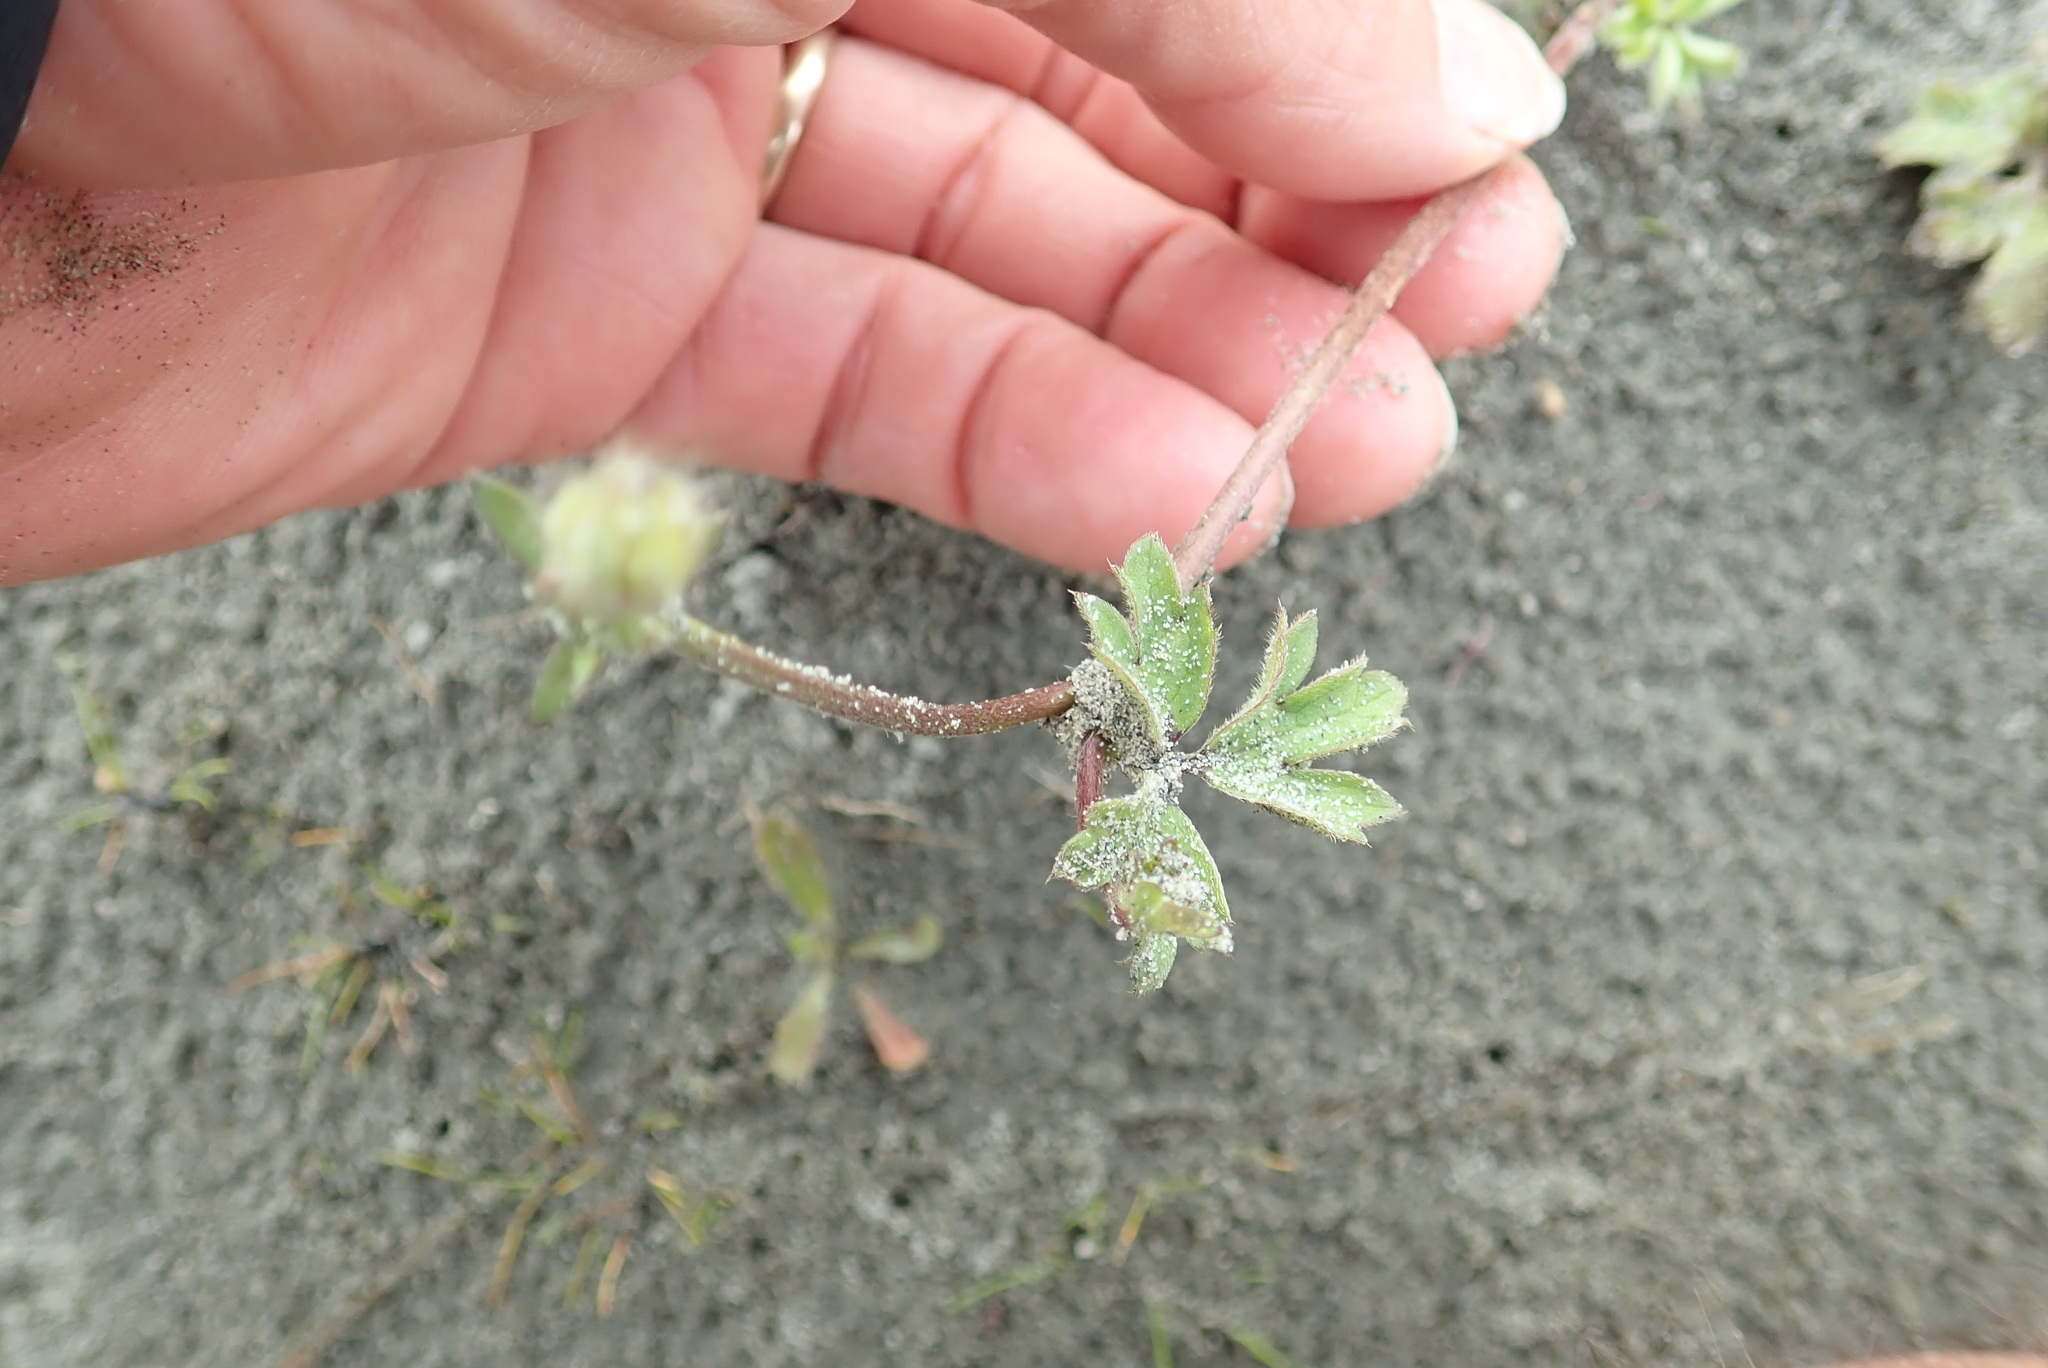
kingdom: Plantae
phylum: Tracheophyta
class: Magnoliopsida
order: Ranunculales
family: Ranunculaceae
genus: Ranunculus
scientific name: Ranunculus repens
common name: Creeping buttercup
